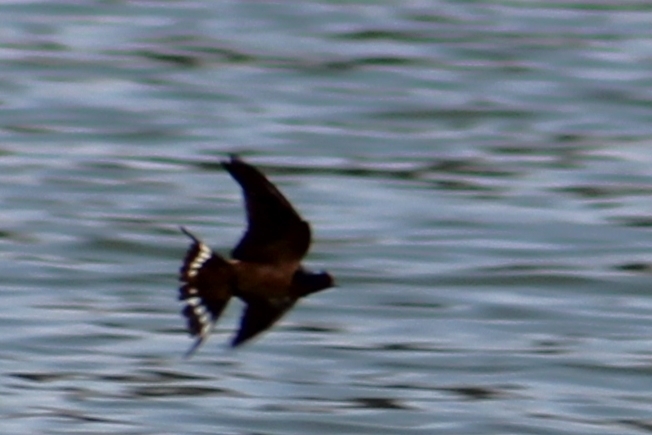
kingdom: Animalia
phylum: Chordata
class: Aves
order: Passeriformes
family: Hirundinidae
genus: Hirundo
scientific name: Hirundo rustica
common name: Barn swallow
